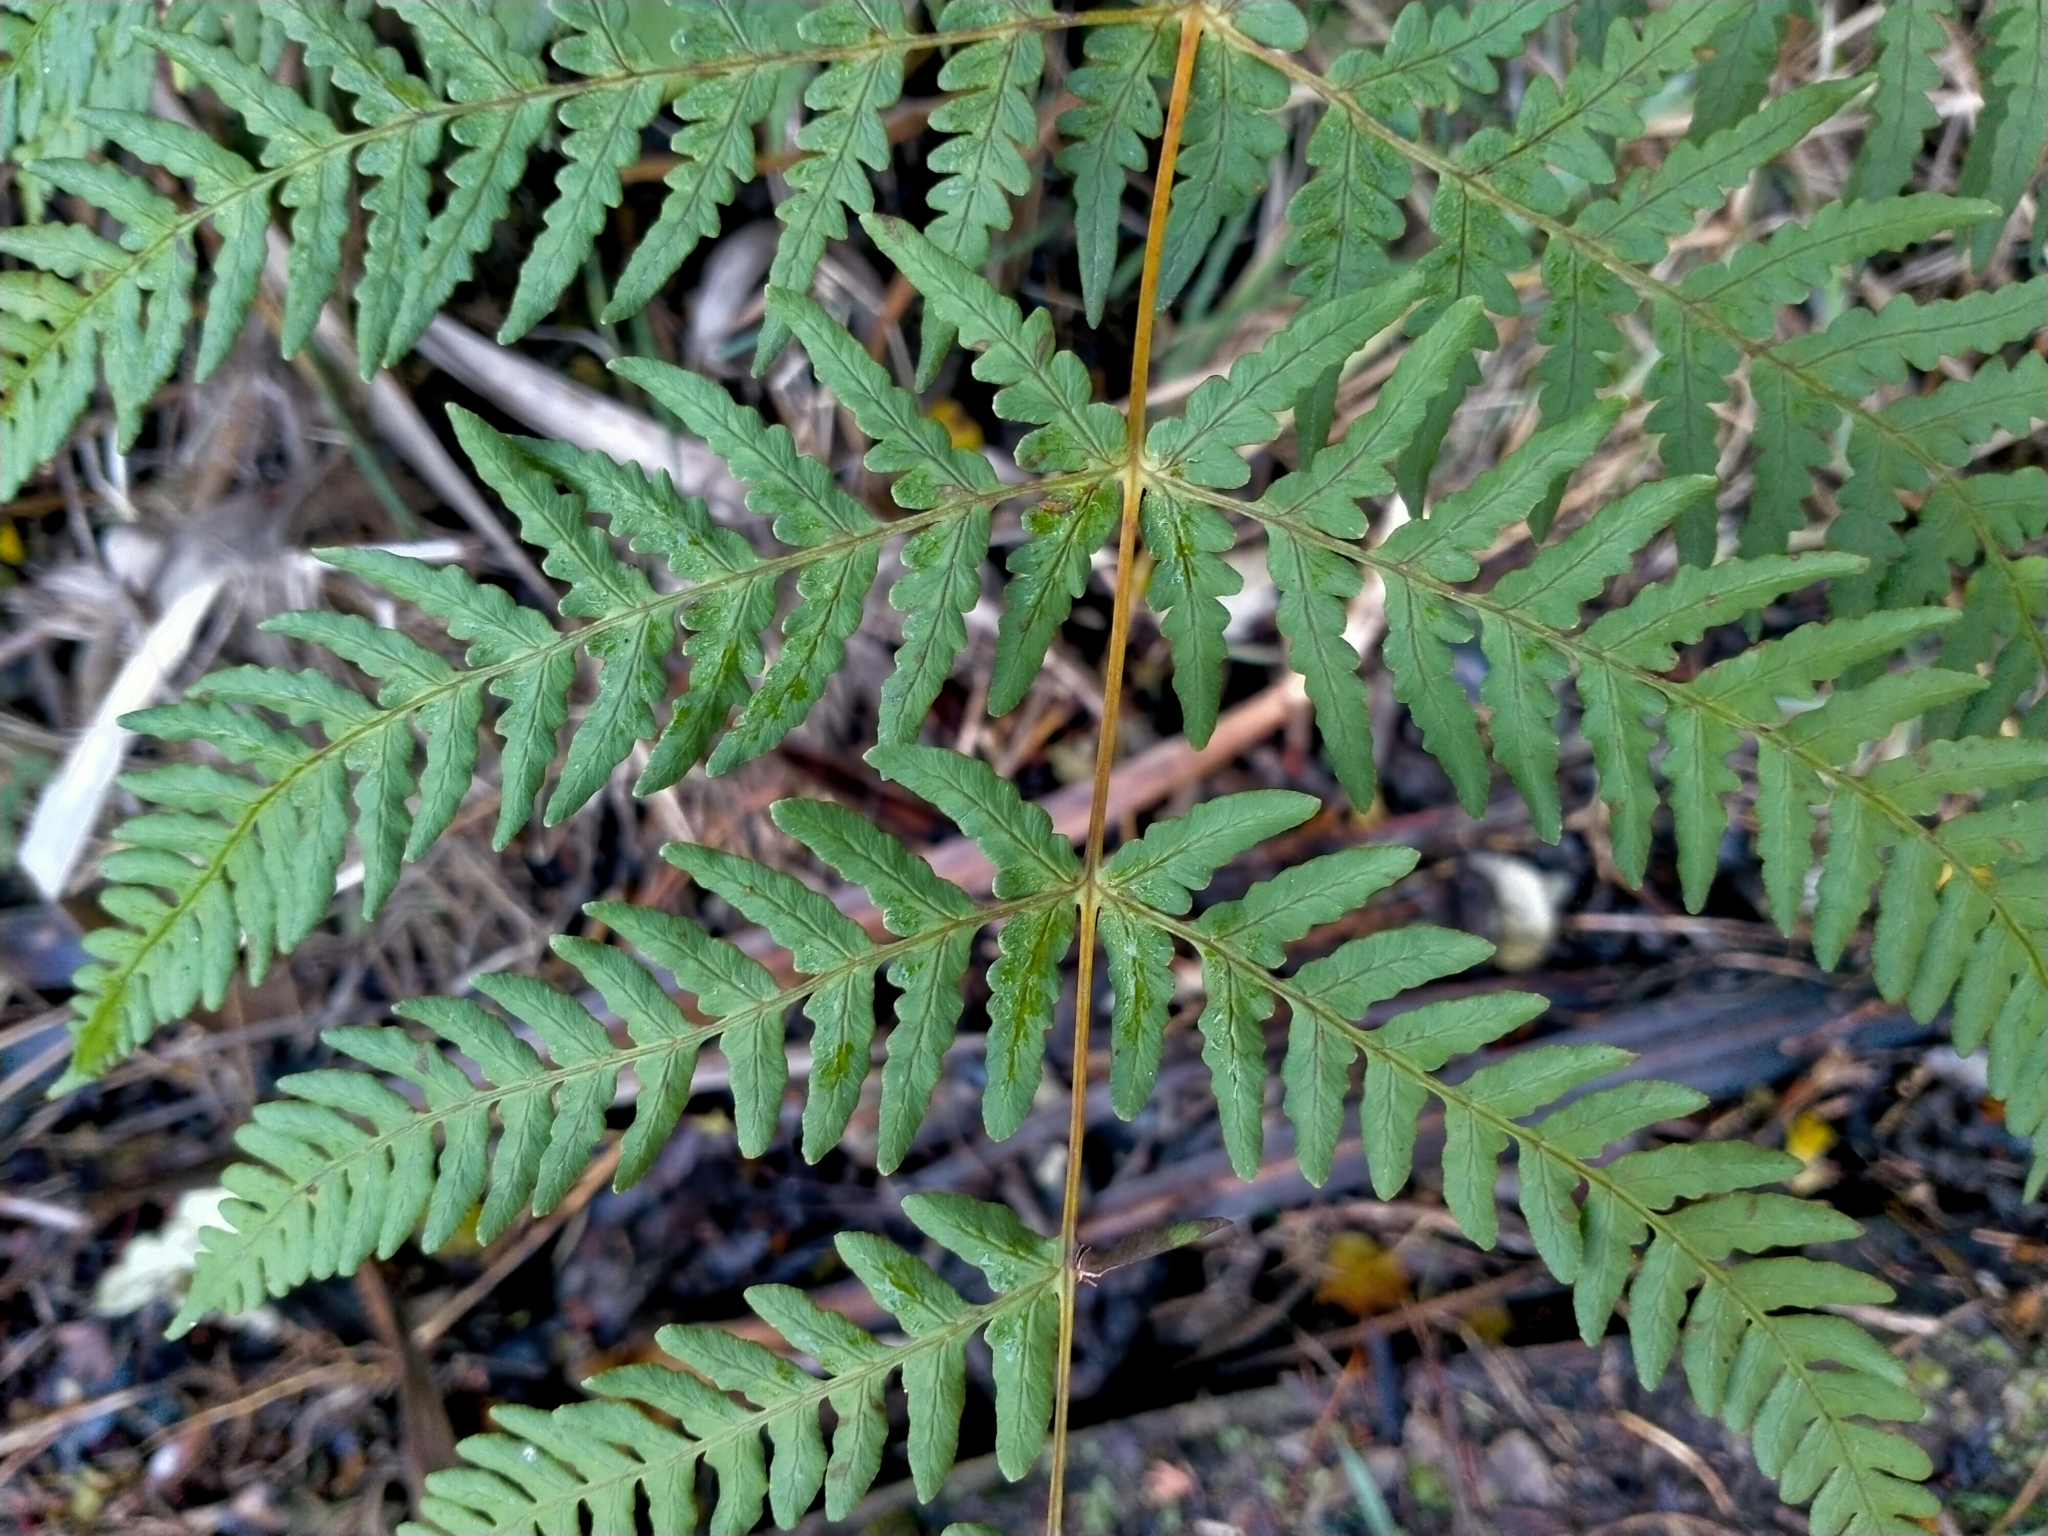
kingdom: Plantae
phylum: Tracheophyta
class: Polypodiopsida
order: Polypodiales
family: Dennstaedtiaceae
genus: Histiopteris
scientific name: Histiopteris incisa
